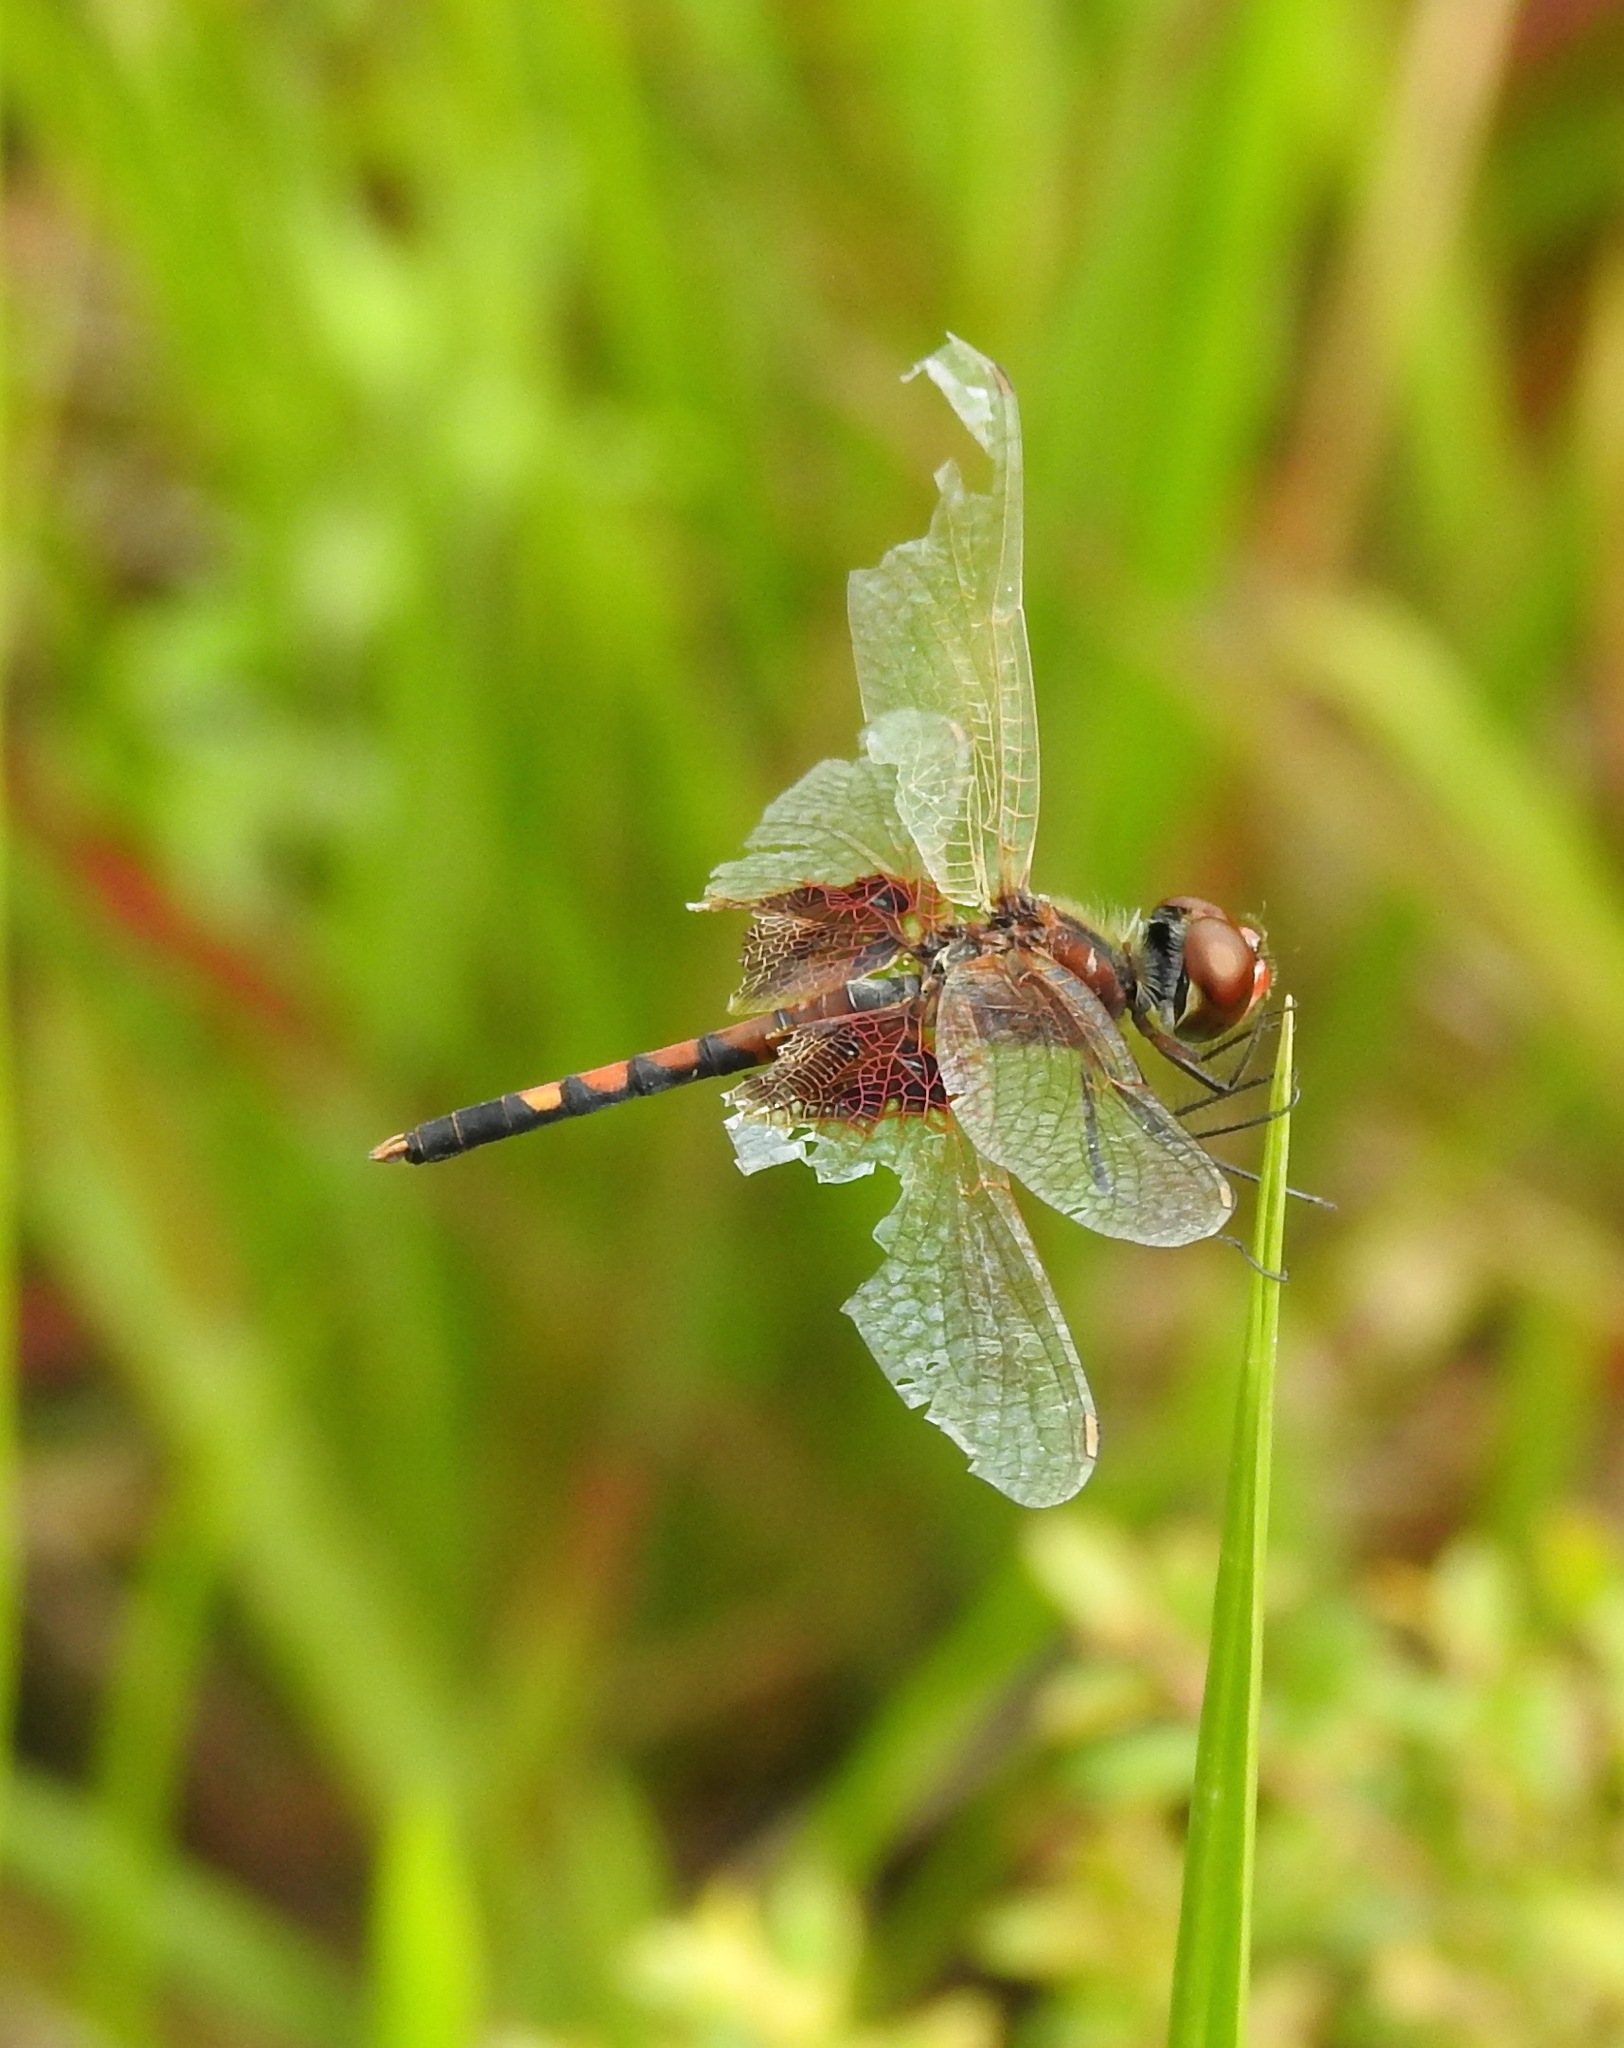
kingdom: Animalia
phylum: Arthropoda
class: Insecta
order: Odonata
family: Libellulidae
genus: Celithemis
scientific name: Celithemis amanda
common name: Amanda's pennant
